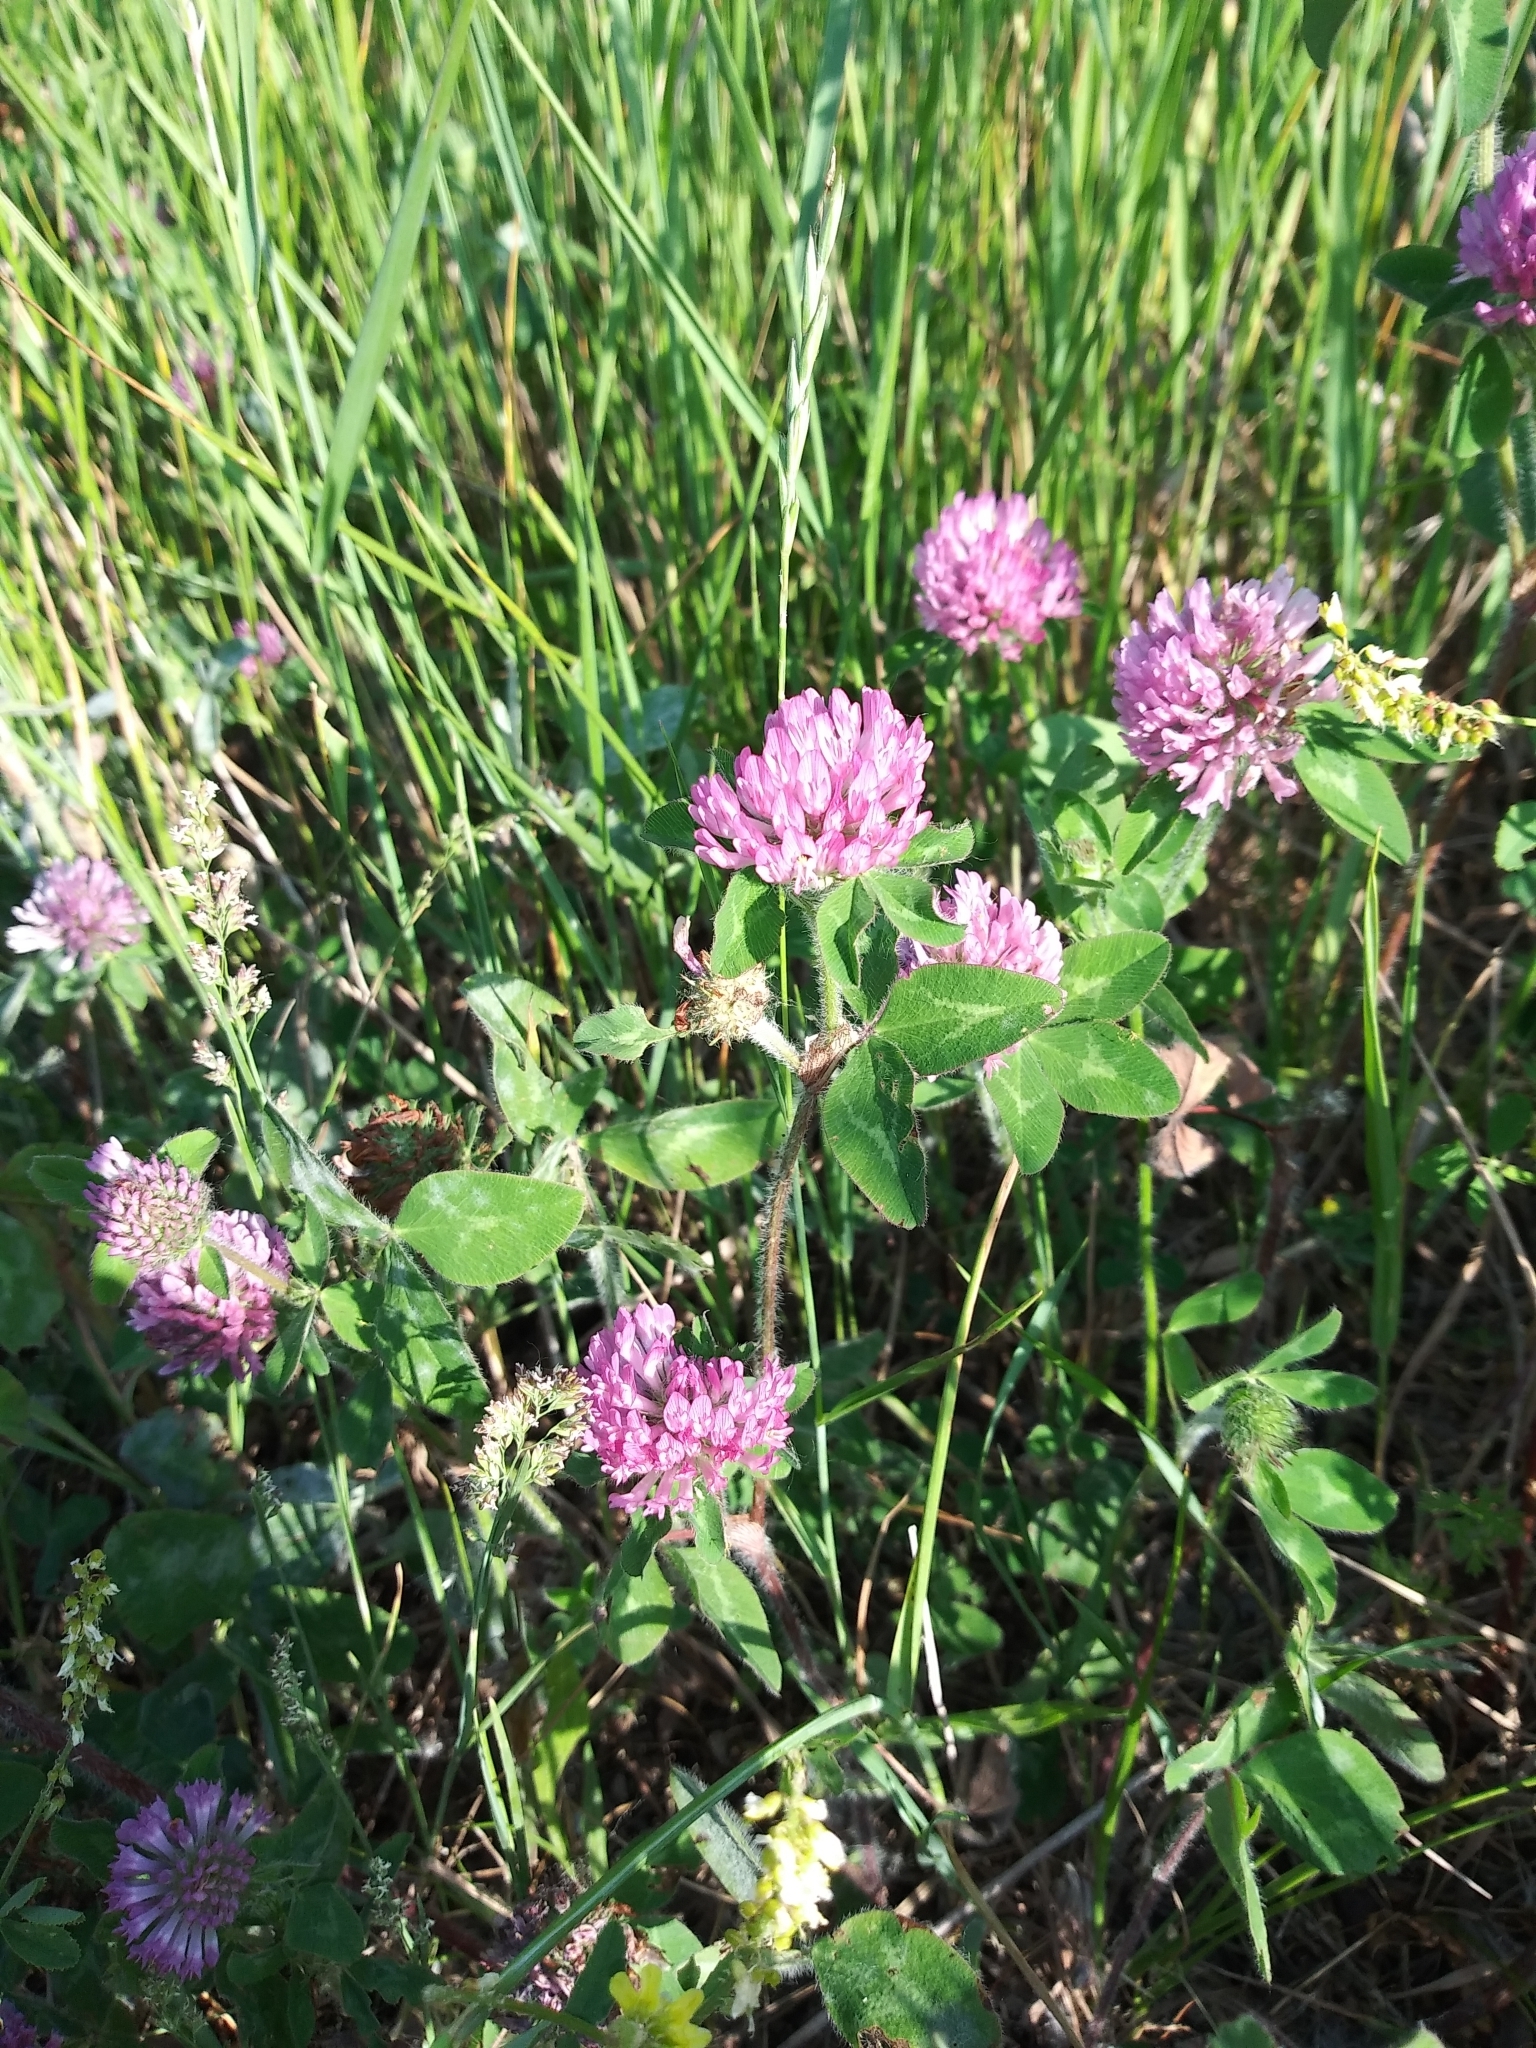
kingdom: Plantae
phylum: Tracheophyta
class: Magnoliopsida
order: Fabales
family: Fabaceae
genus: Trifolium
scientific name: Trifolium pratense
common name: Red clover
